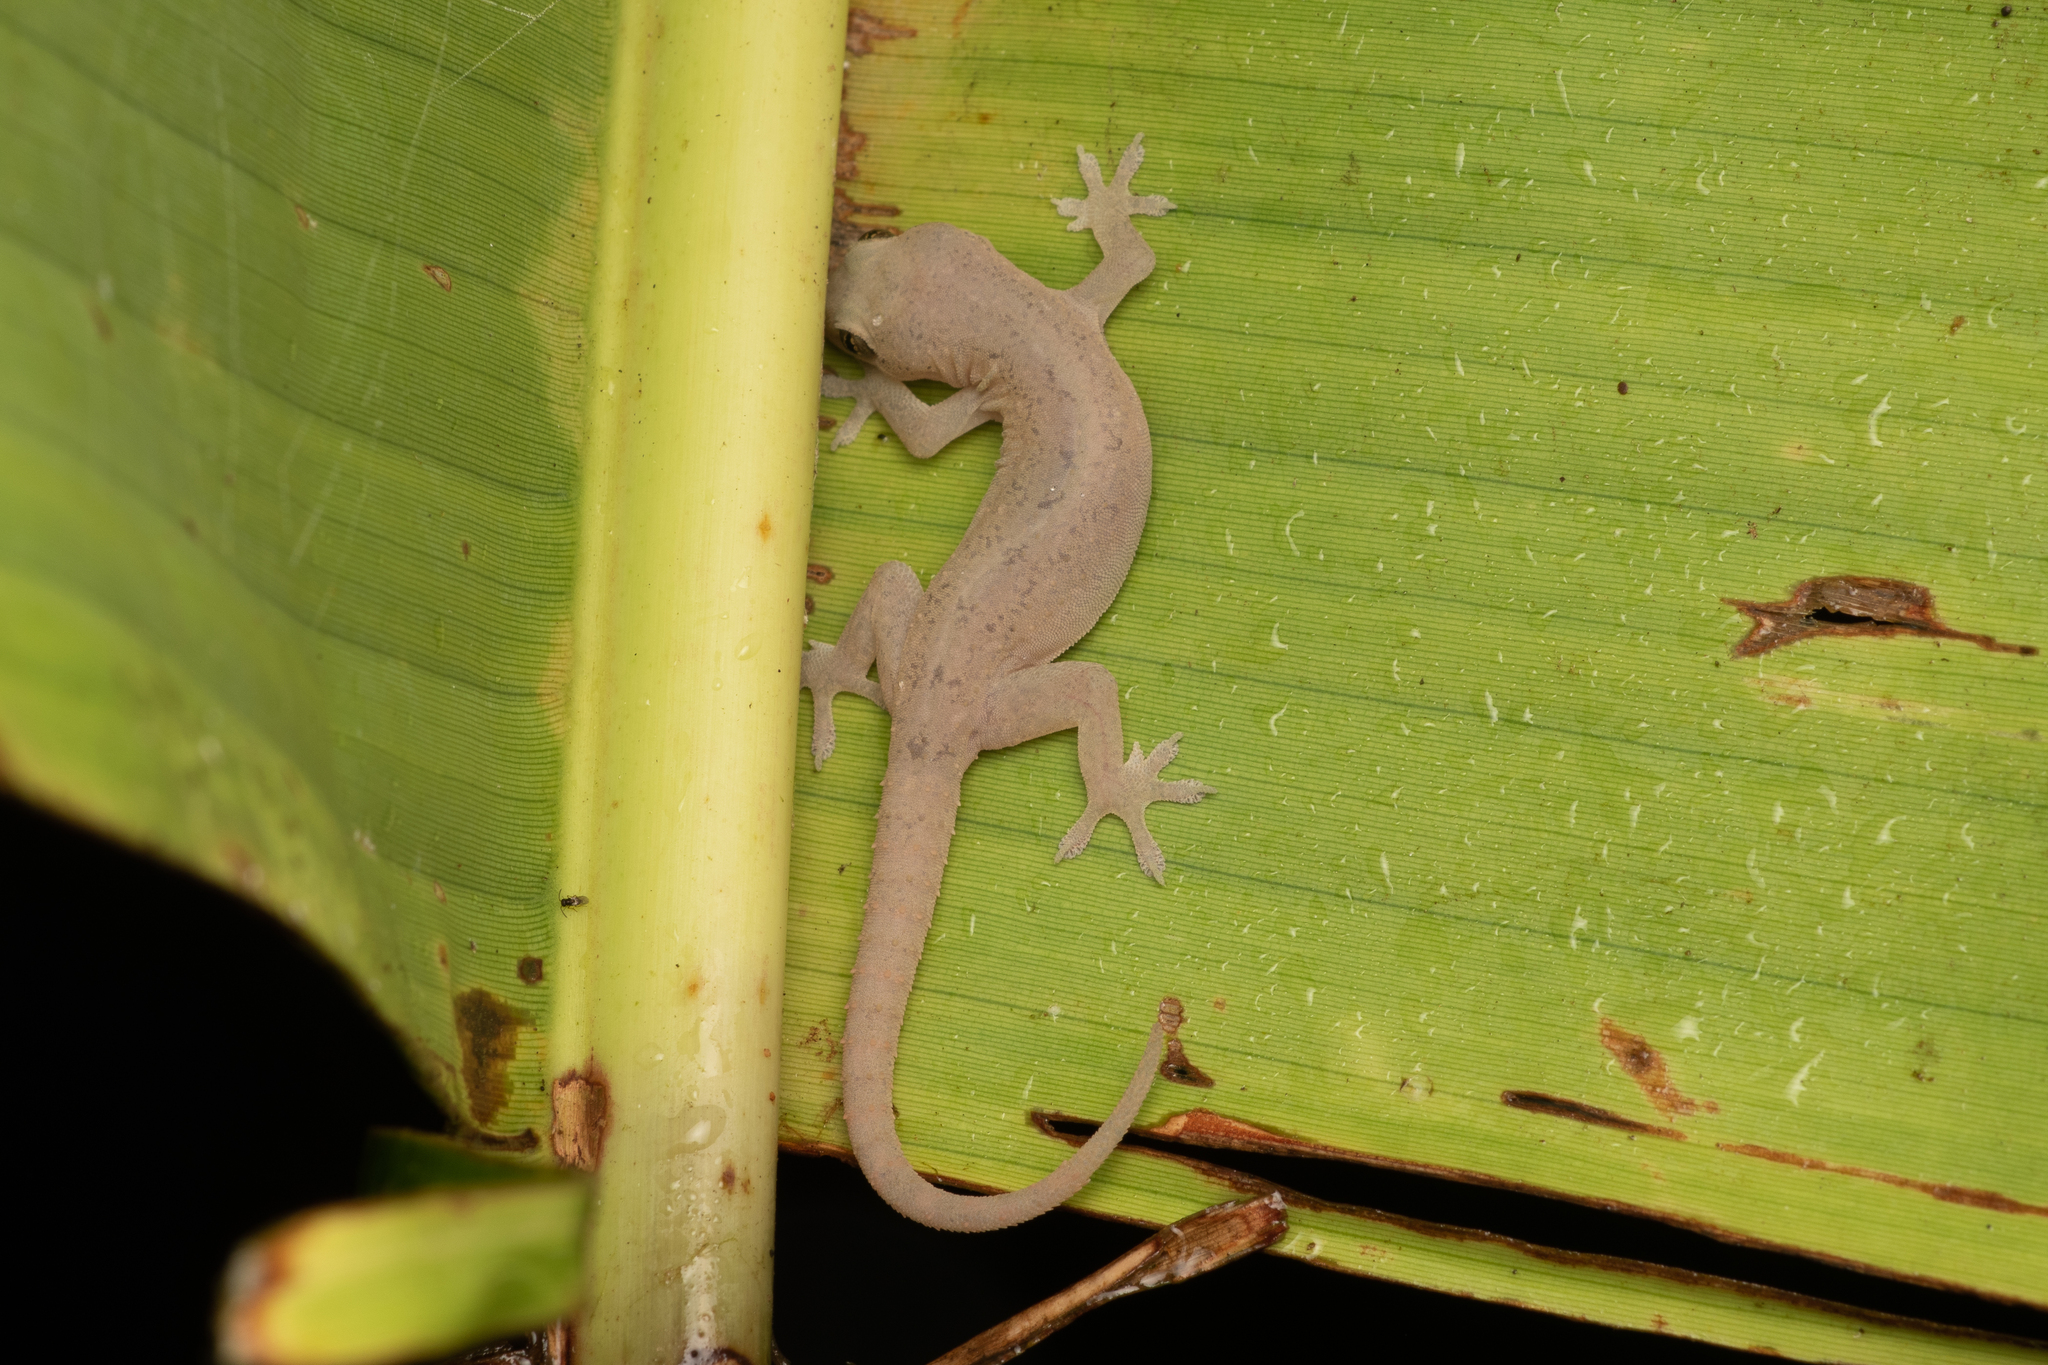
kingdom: Animalia
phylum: Chordata
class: Squamata
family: Gekkonidae
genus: Hemidactylus
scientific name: Hemidactylus frenatus
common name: Common house gecko
